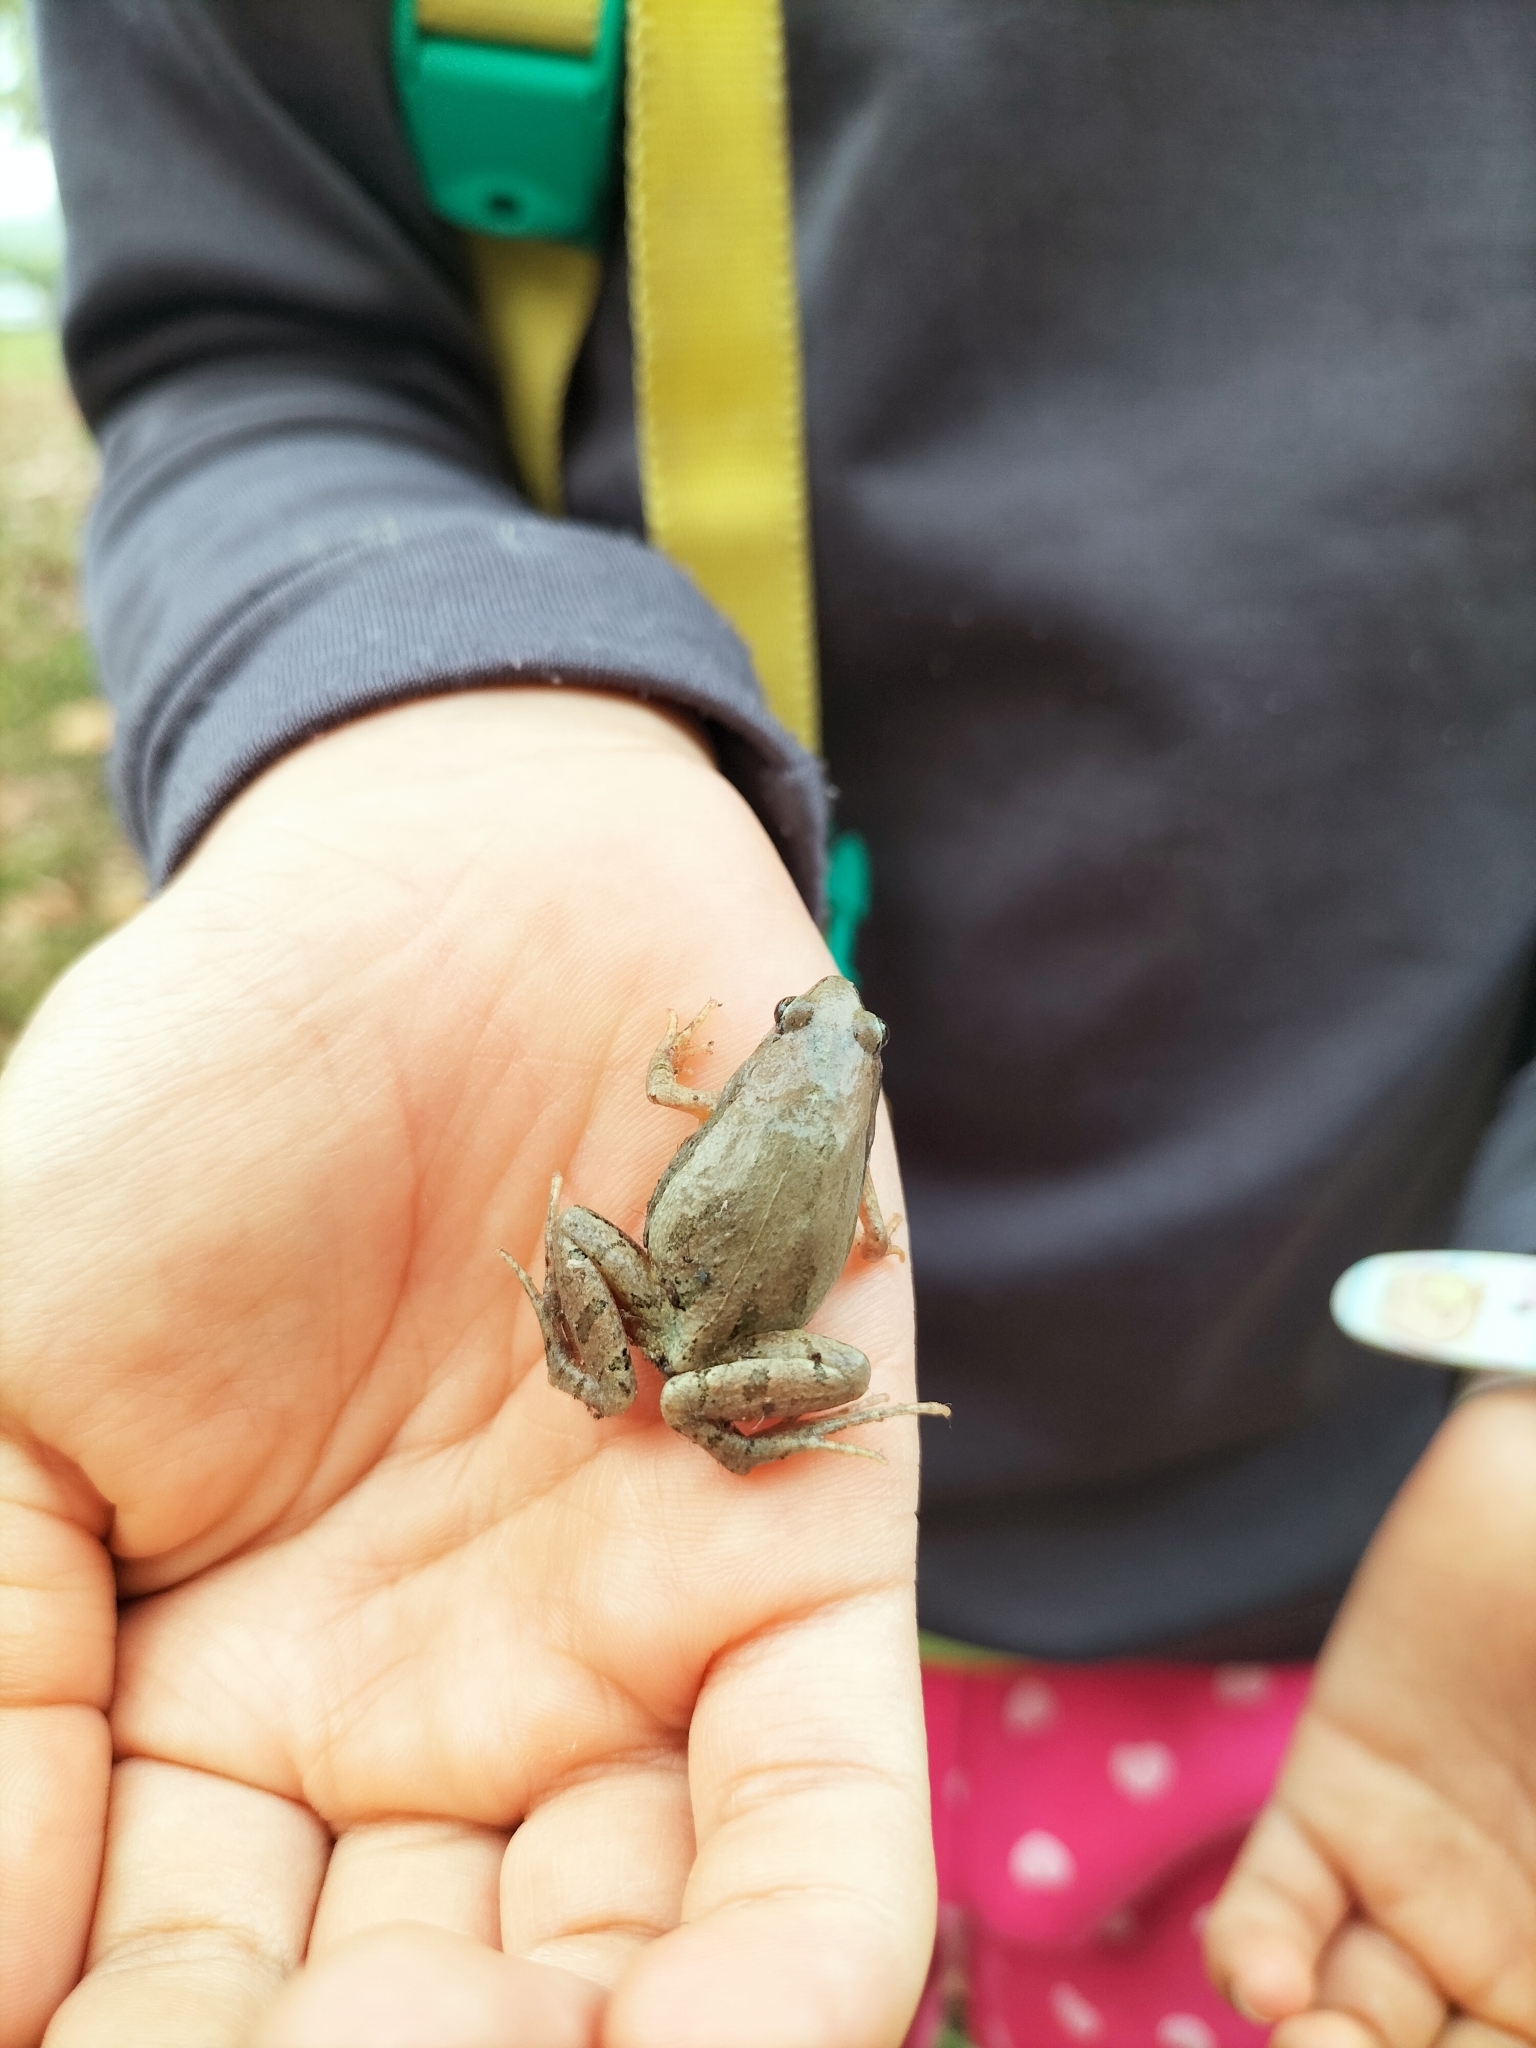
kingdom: Animalia
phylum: Chordata
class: Amphibia
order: Anura
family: Microhylidae
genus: Microhyla
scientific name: Microhyla fissipes
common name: Ornate narrow-mouthed frog
